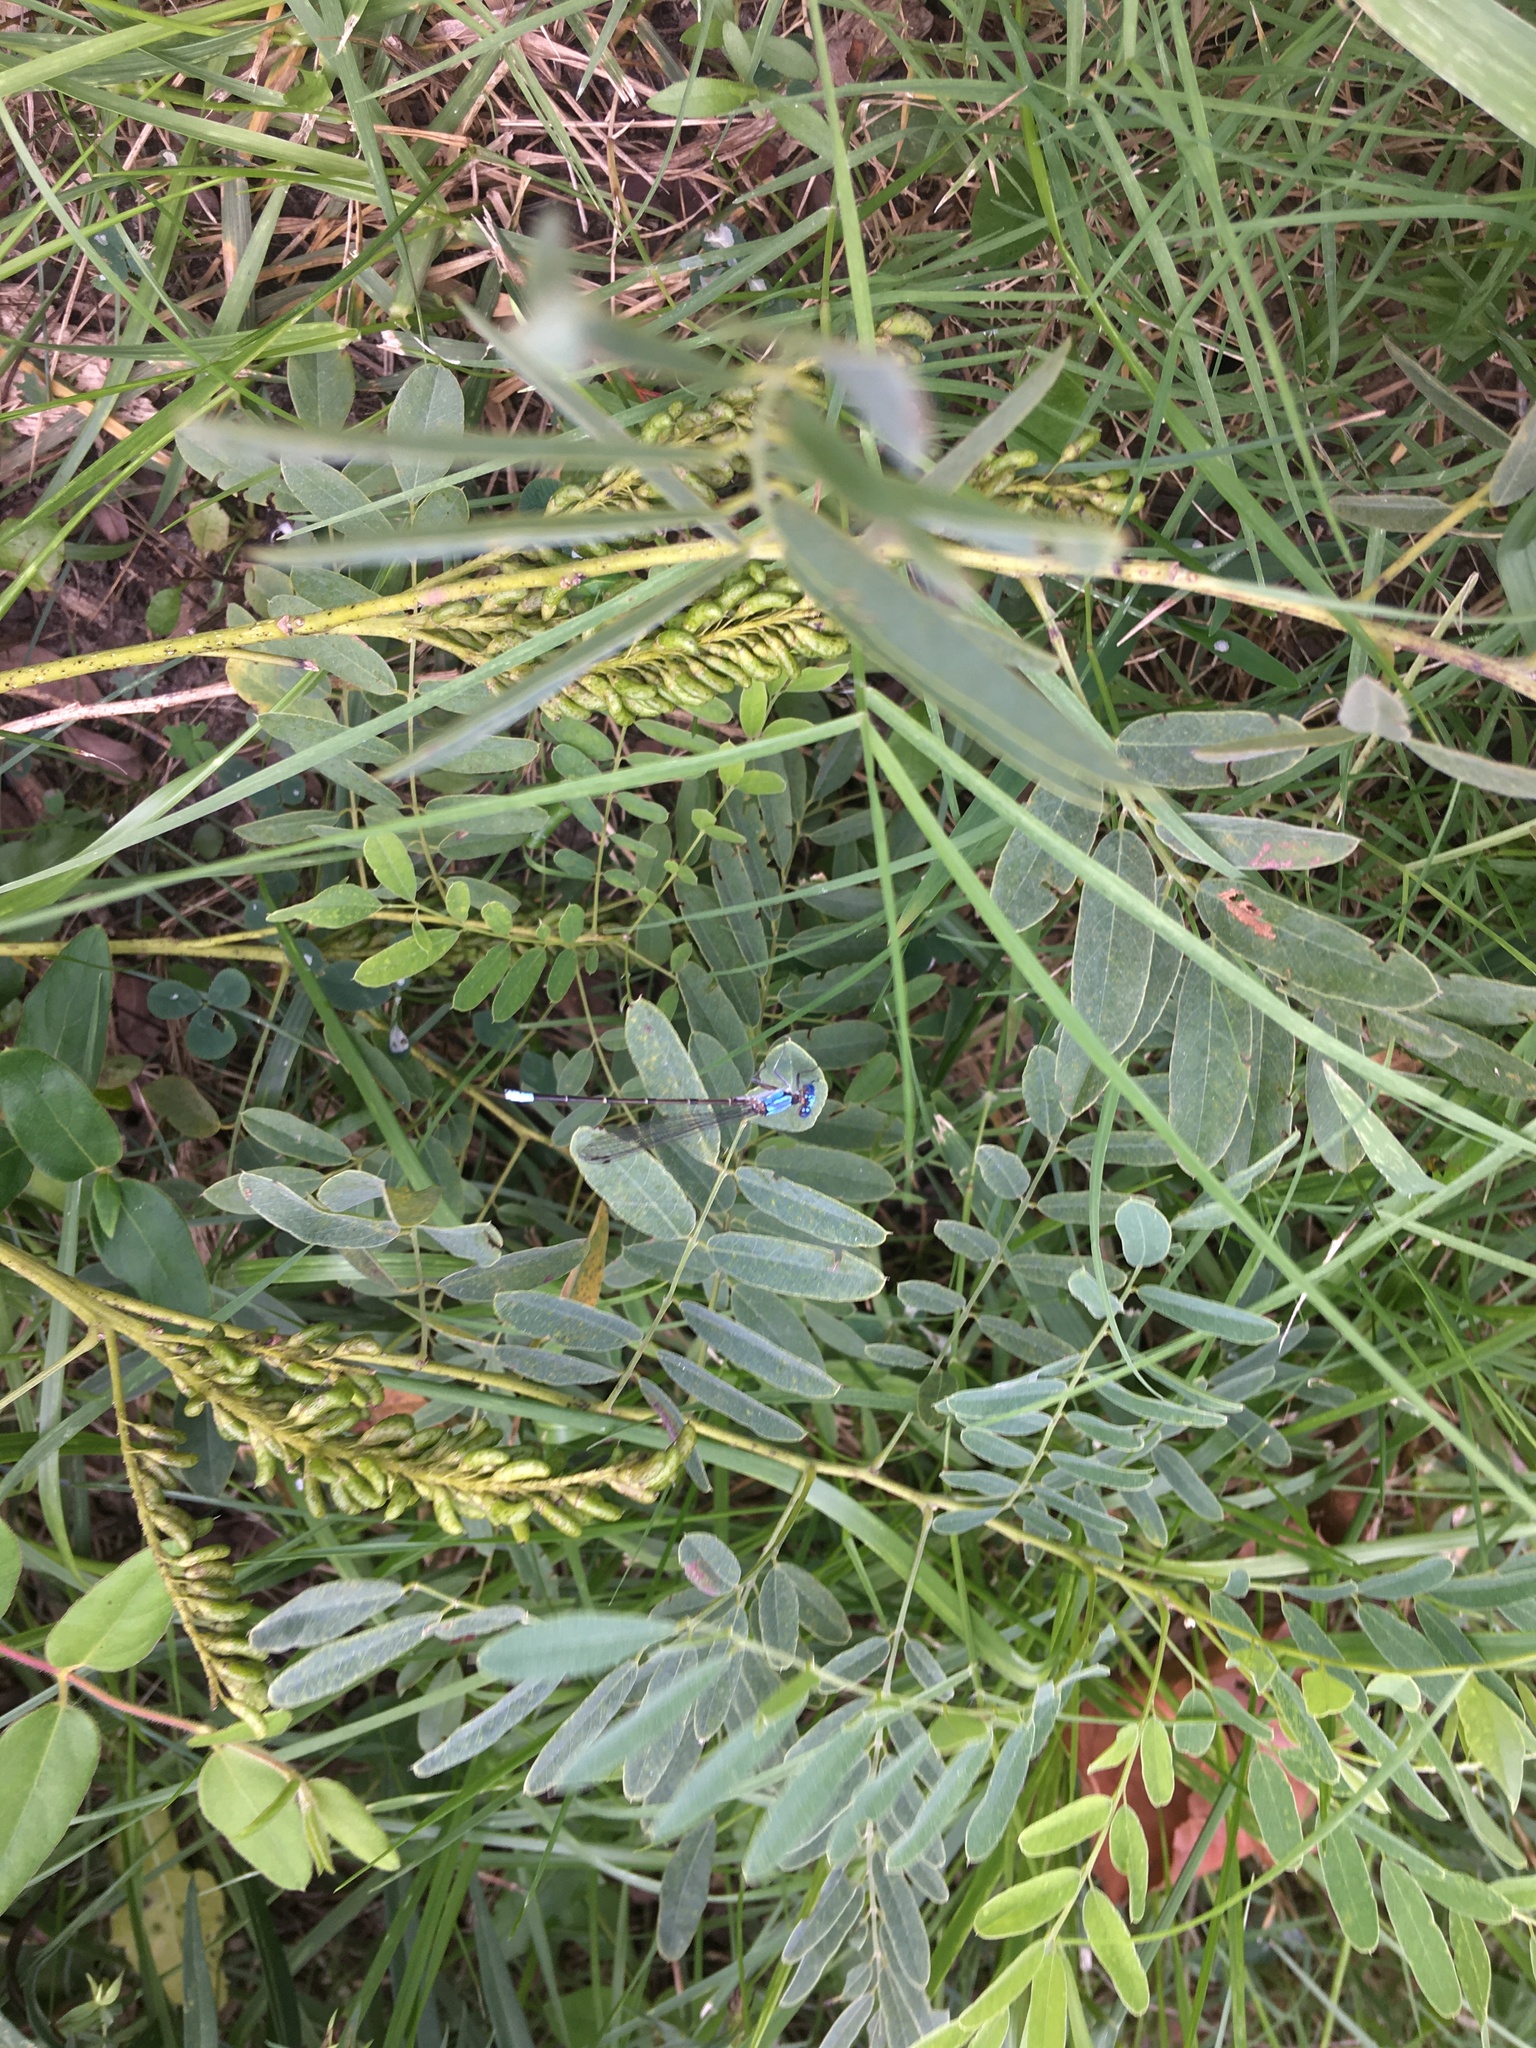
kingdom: Animalia
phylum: Arthropoda
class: Insecta
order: Odonata
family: Coenagrionidae
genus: Argia
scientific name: Argia apicalis
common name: Blue-fronted dancer
